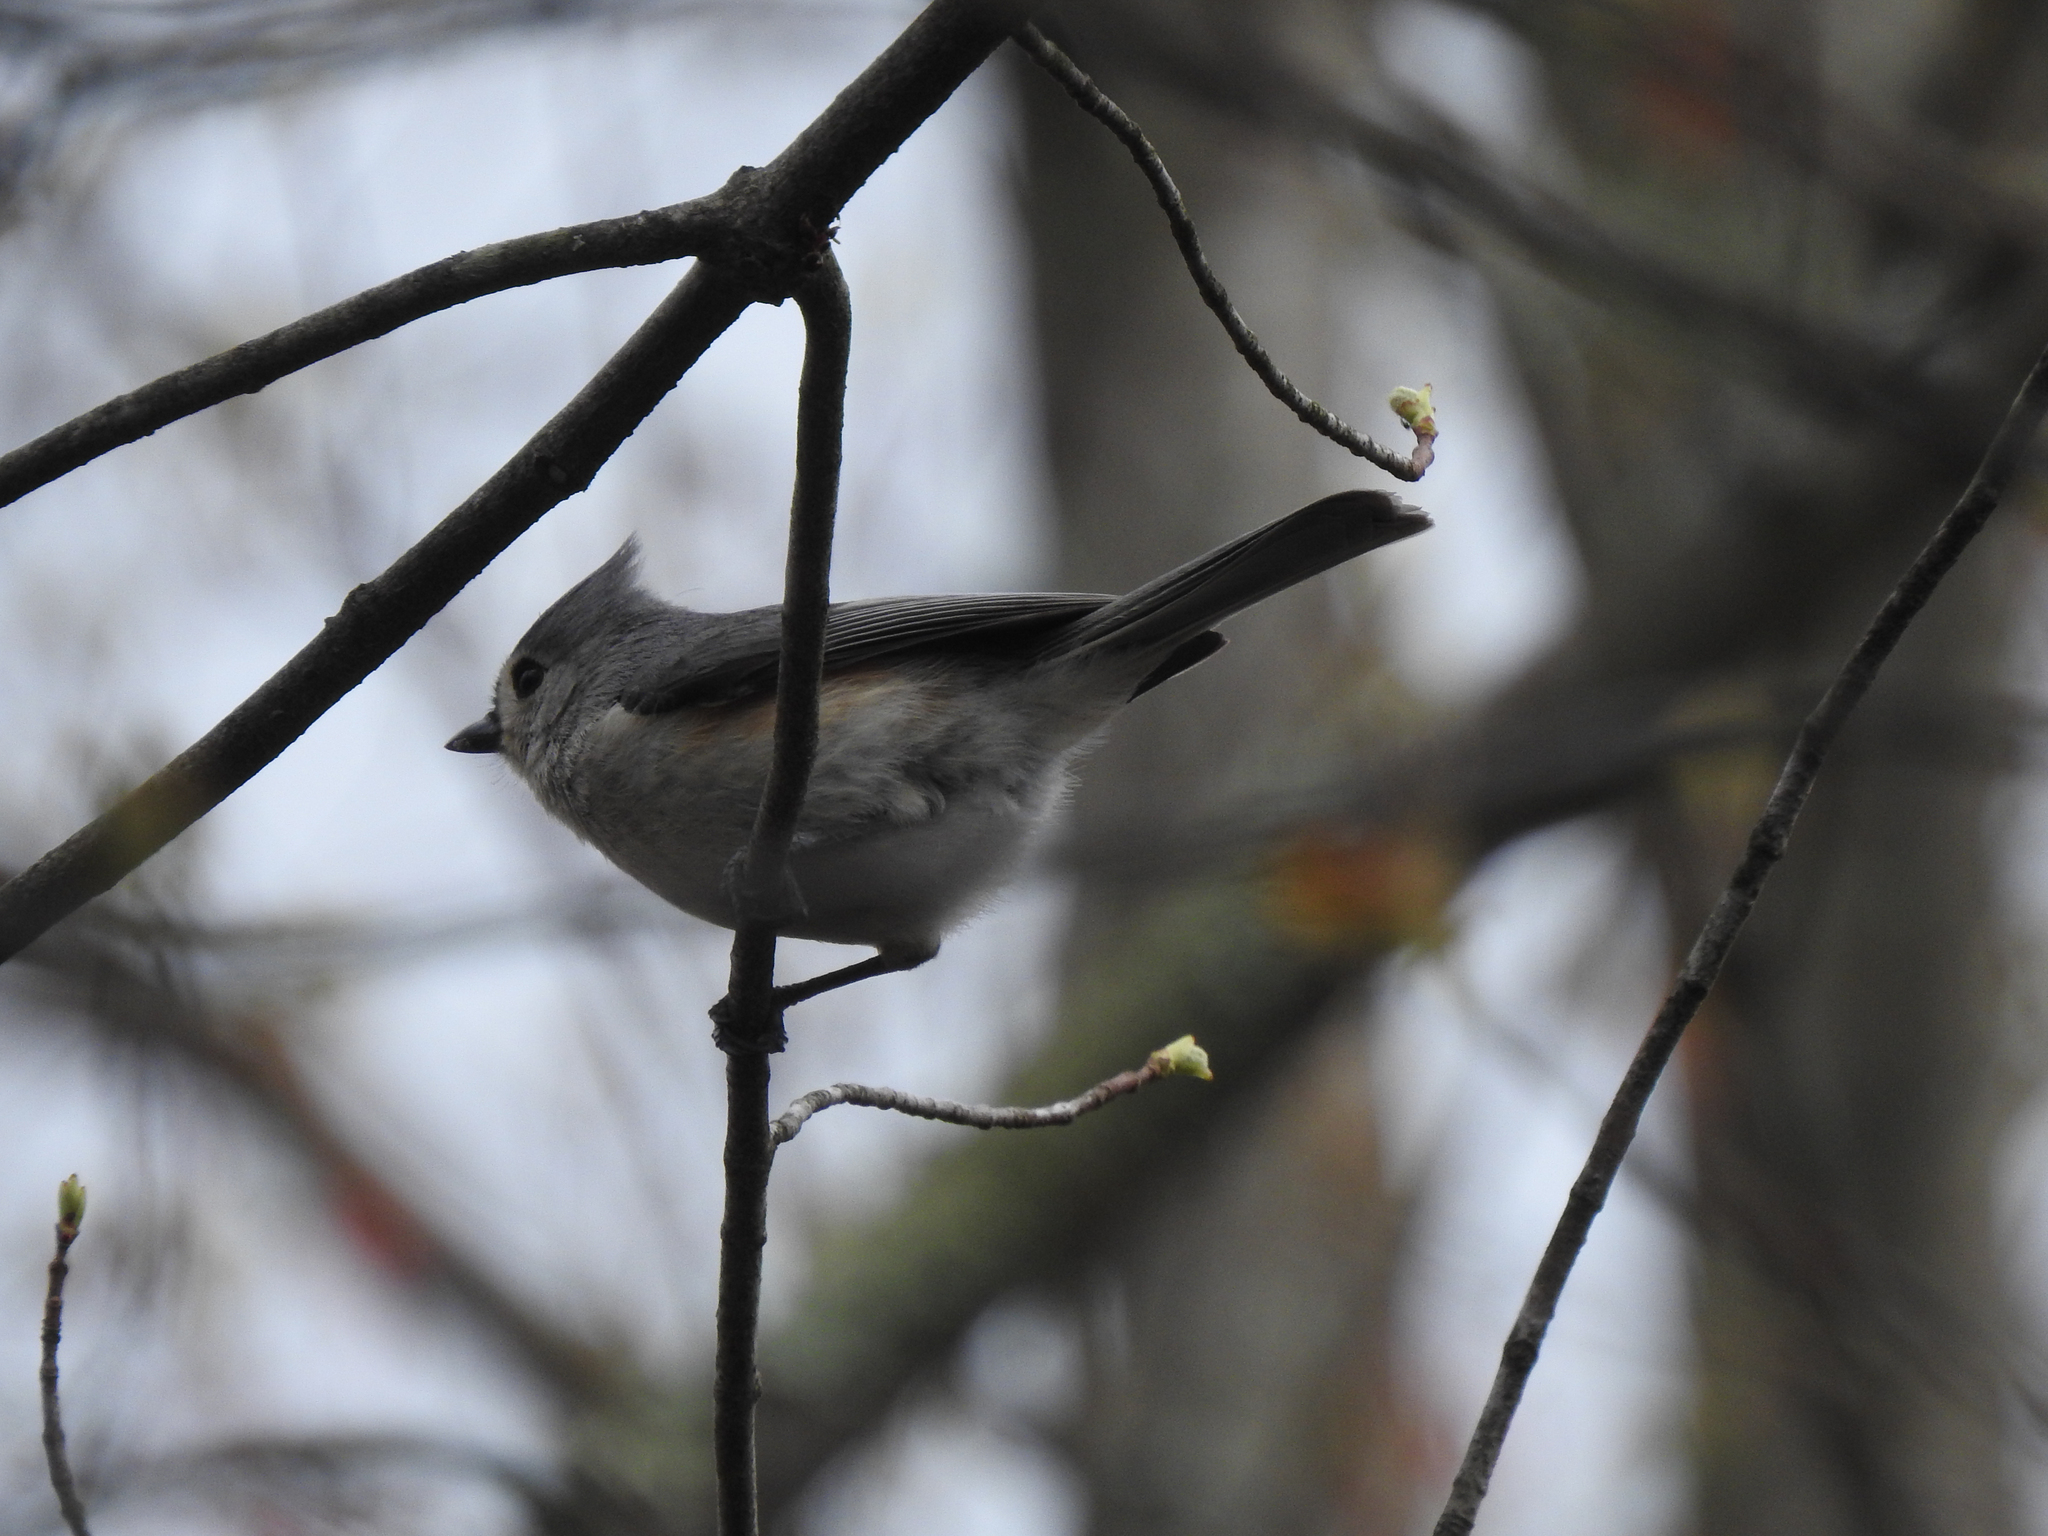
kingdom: Animalia
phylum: Chordata
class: Aves
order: Passeriformes
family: Paridae
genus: Baeolophus
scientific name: Baeolophus bicolor
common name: Tufted titmouse
